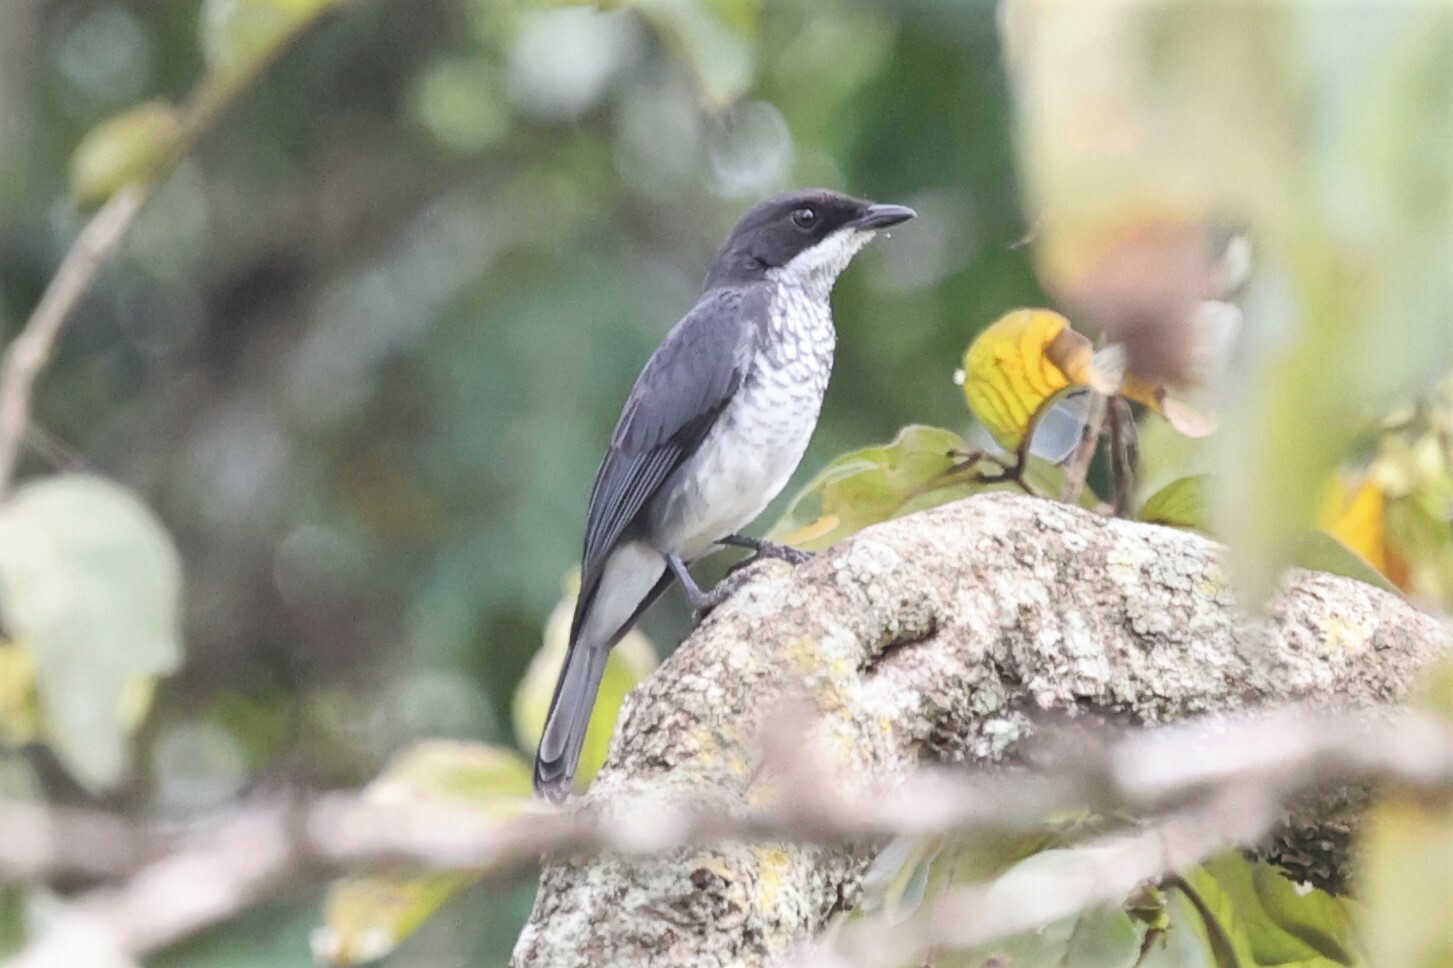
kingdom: Animalia
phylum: Chordata
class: Aves
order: Passeriformes
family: Muscicapidae
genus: Fraseria
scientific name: Fraseria ocreata
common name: Fraser's forest flycatcher
